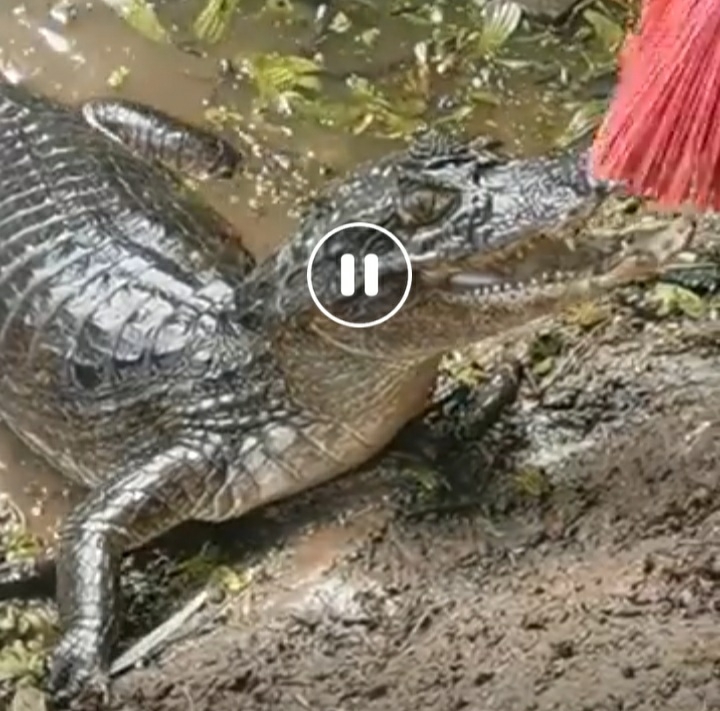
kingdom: Animalia
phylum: Chordata
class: Crocodylia
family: Alligatoridae
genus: Caiman
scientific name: Caiman crocodilus
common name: Common caiman
